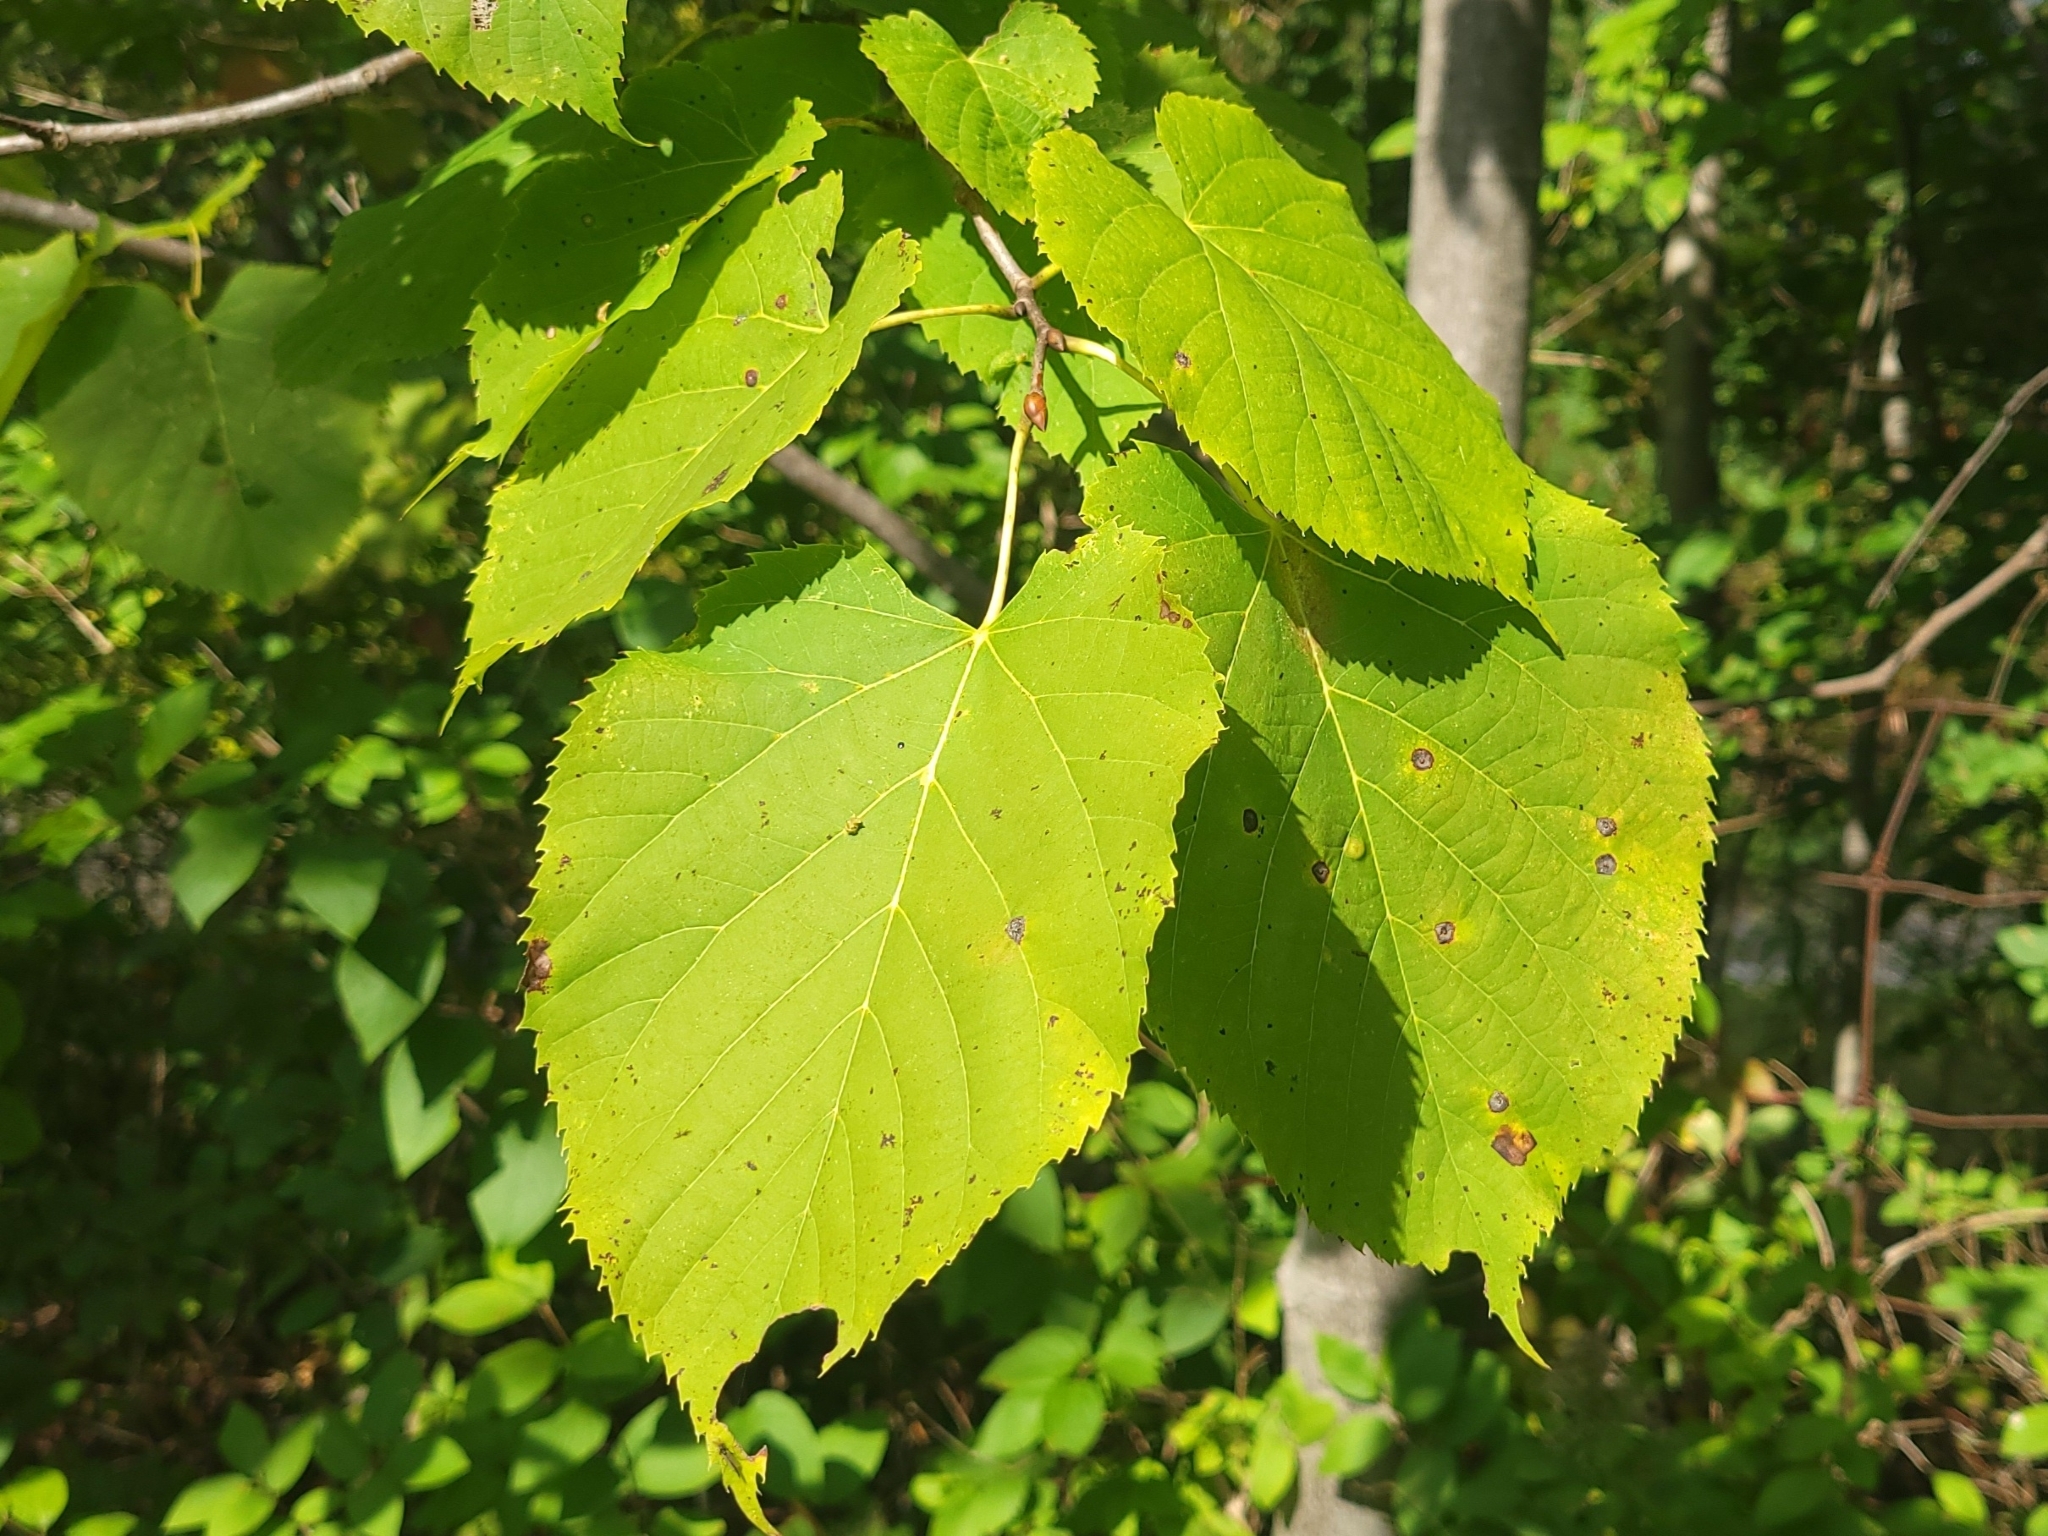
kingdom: Plantae
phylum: Tracheophyta
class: Magnoliopsida
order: Malvales
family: Malvaceae
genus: Tilia
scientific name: Tilia americana
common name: Basswood
